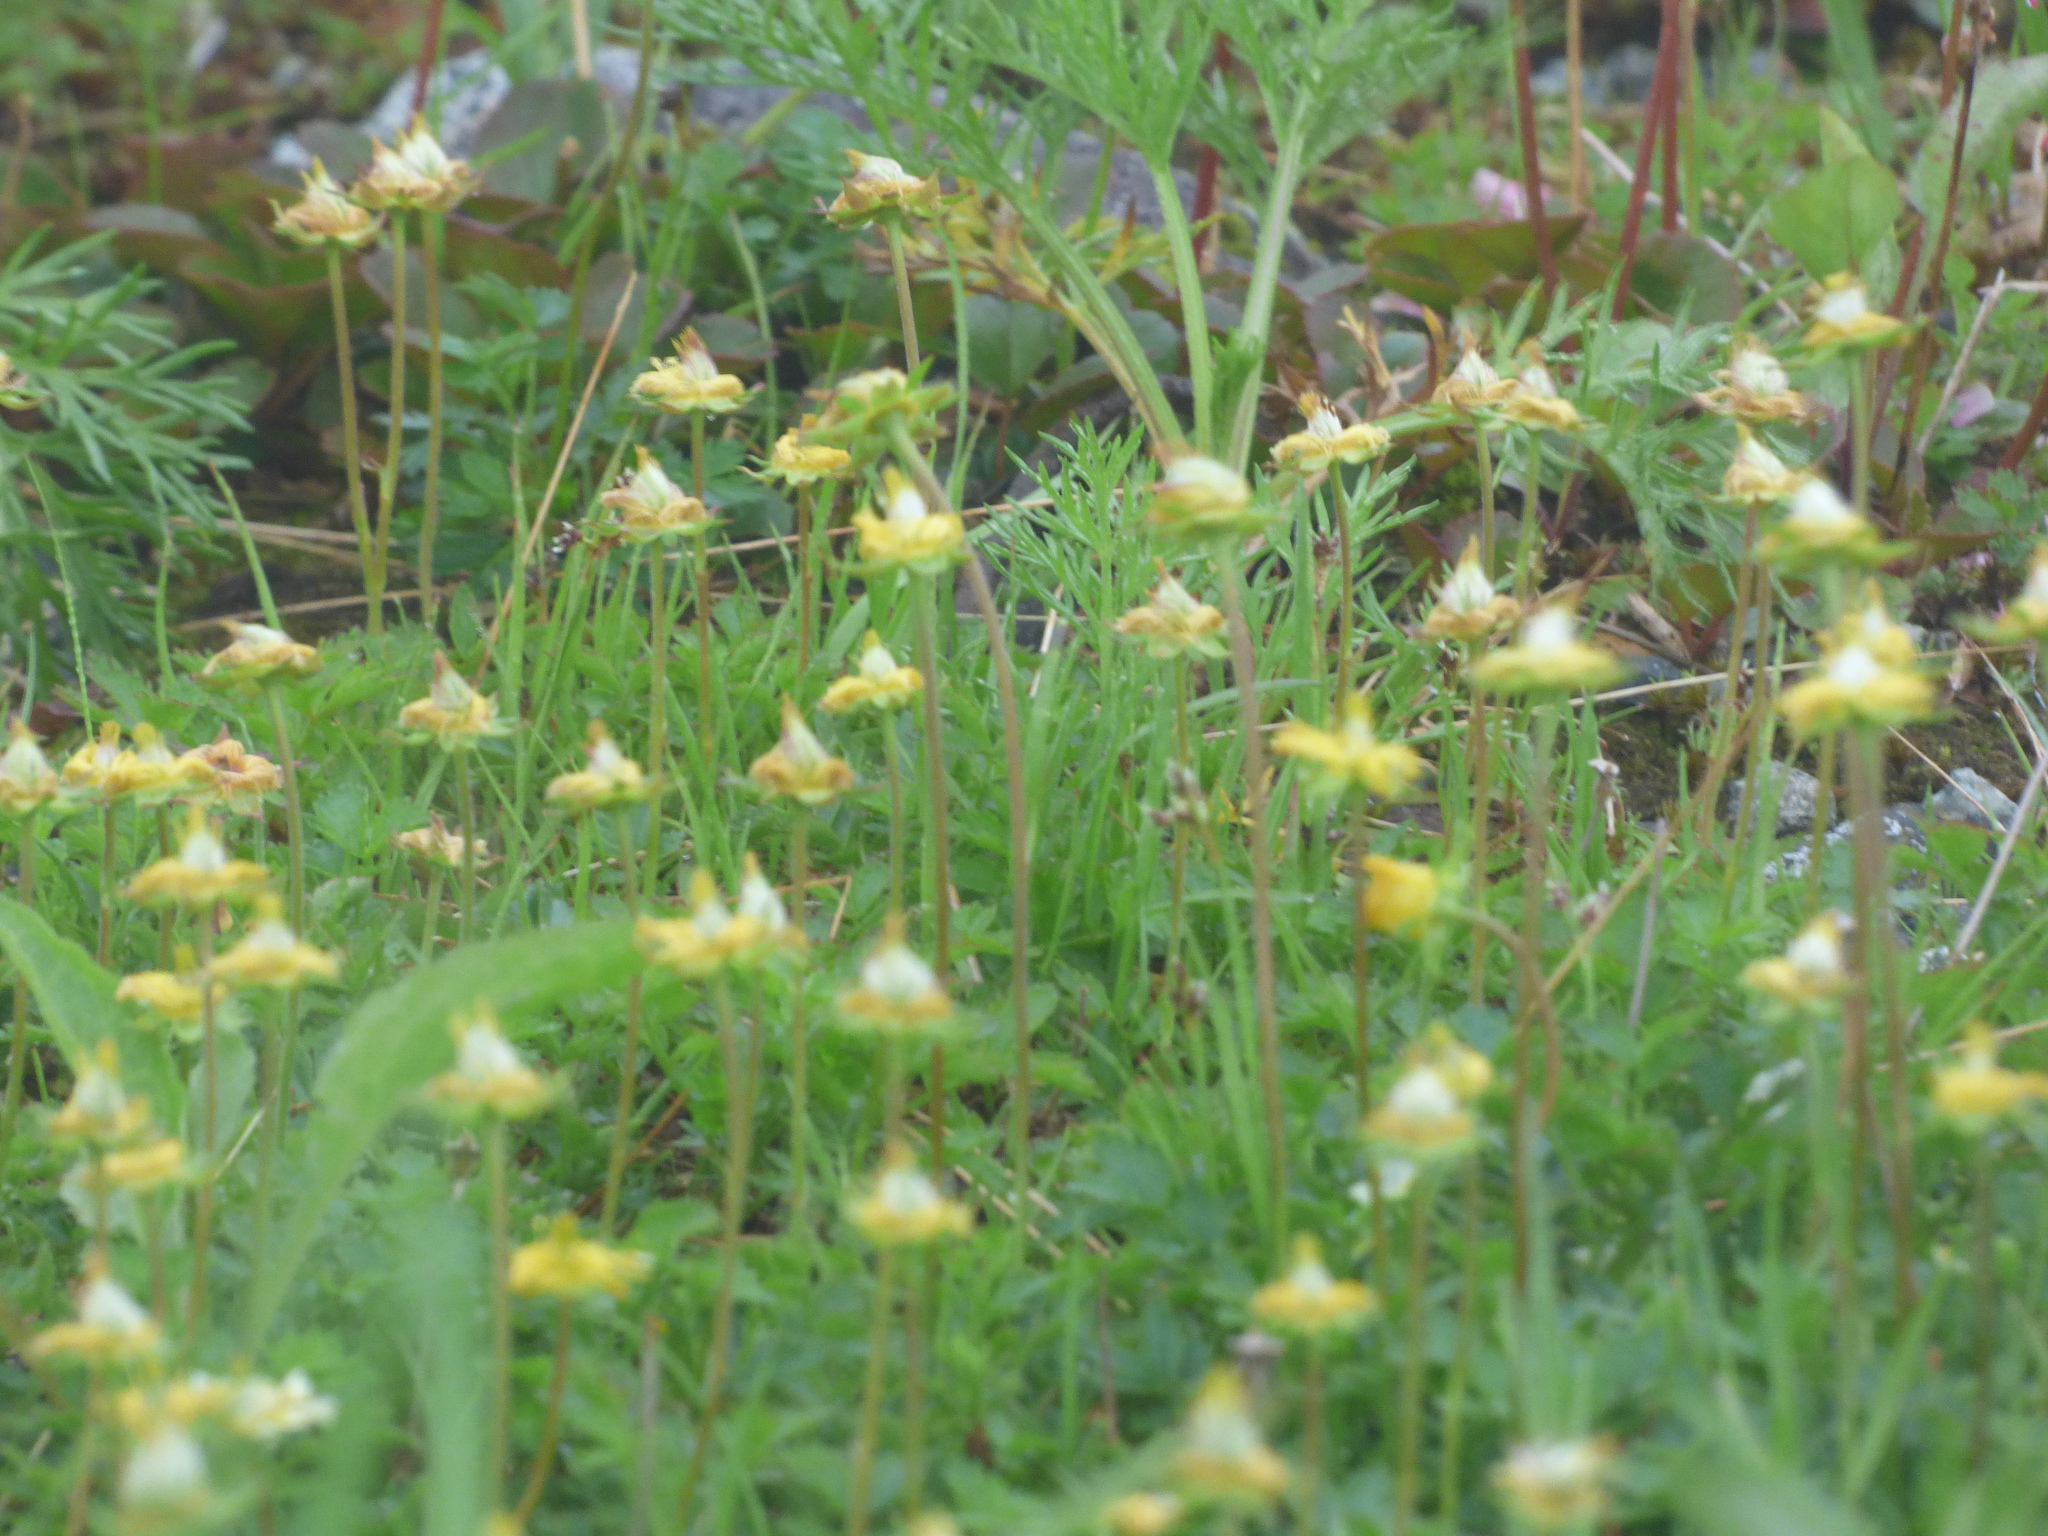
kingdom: Plantae
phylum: Tracheophyta
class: Magnoliopsida
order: Rosales
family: Rosaceae
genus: Geum
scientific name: Geum pentapetalum
